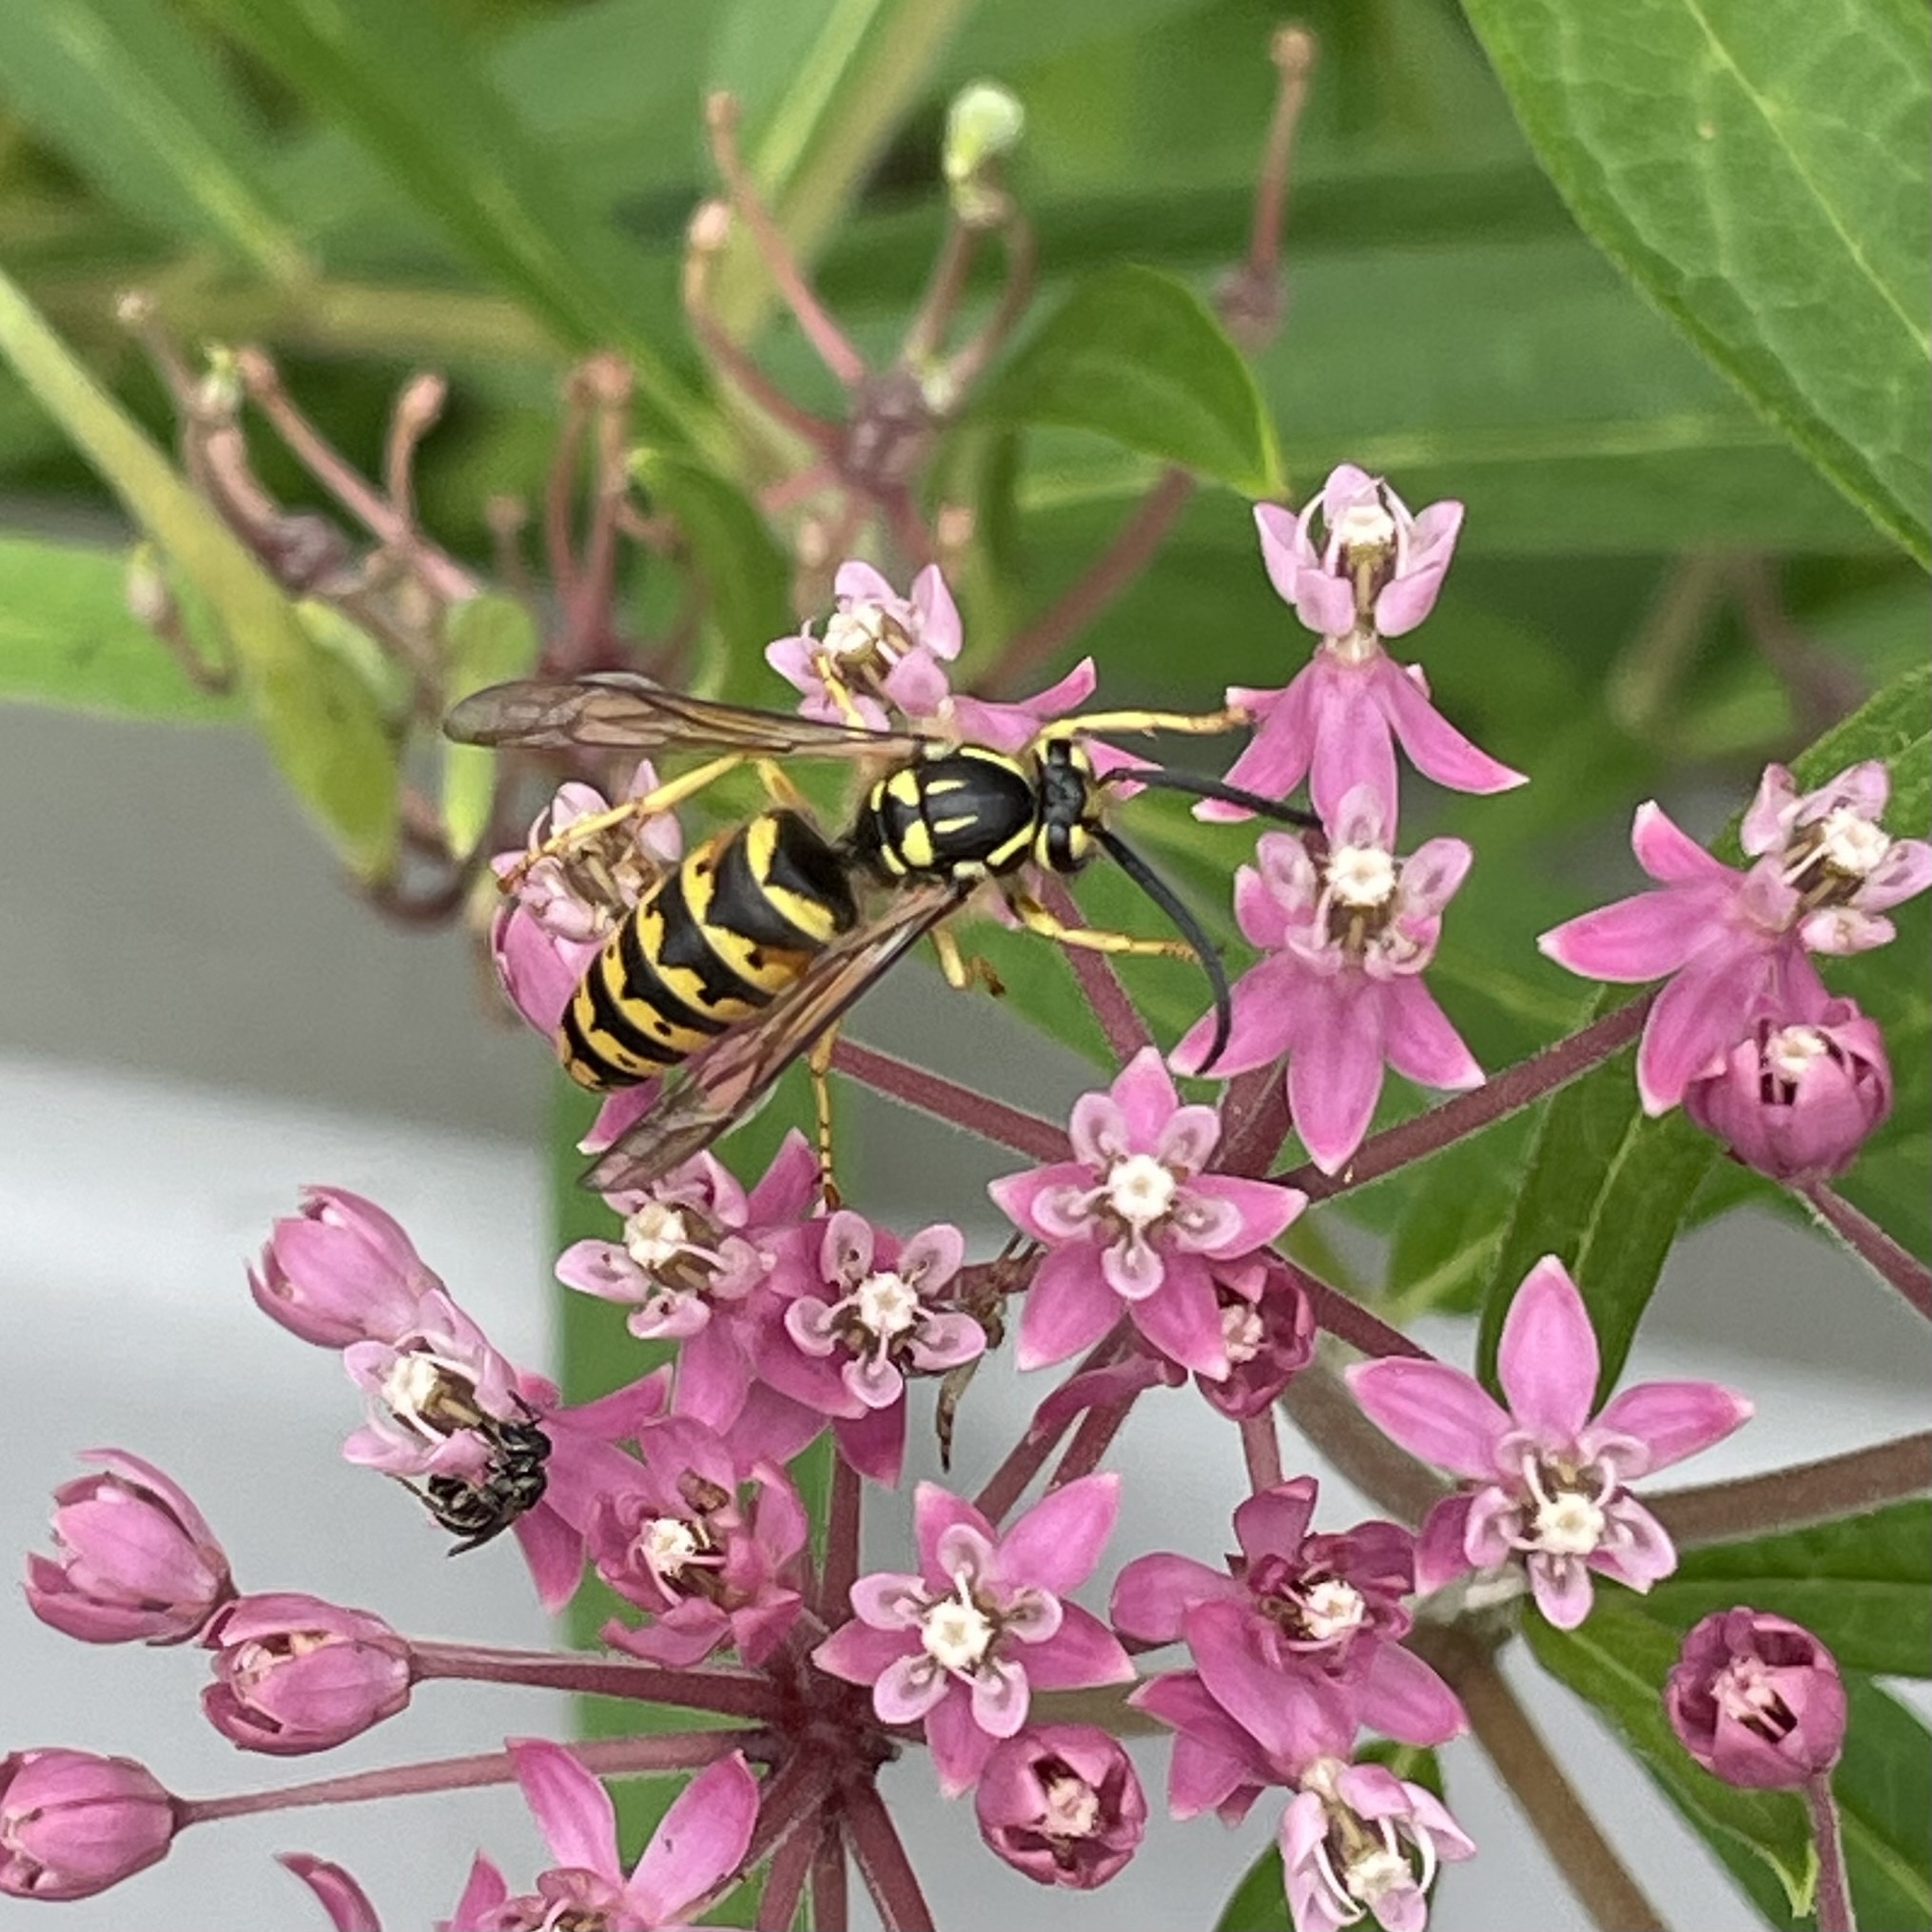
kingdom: Animalia
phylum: Arthropoda
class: Insecta
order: Hymenoptera
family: Vespidae
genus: Dolichovespula
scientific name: Dolichovespula arenaria
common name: Aerial yellowjacket
